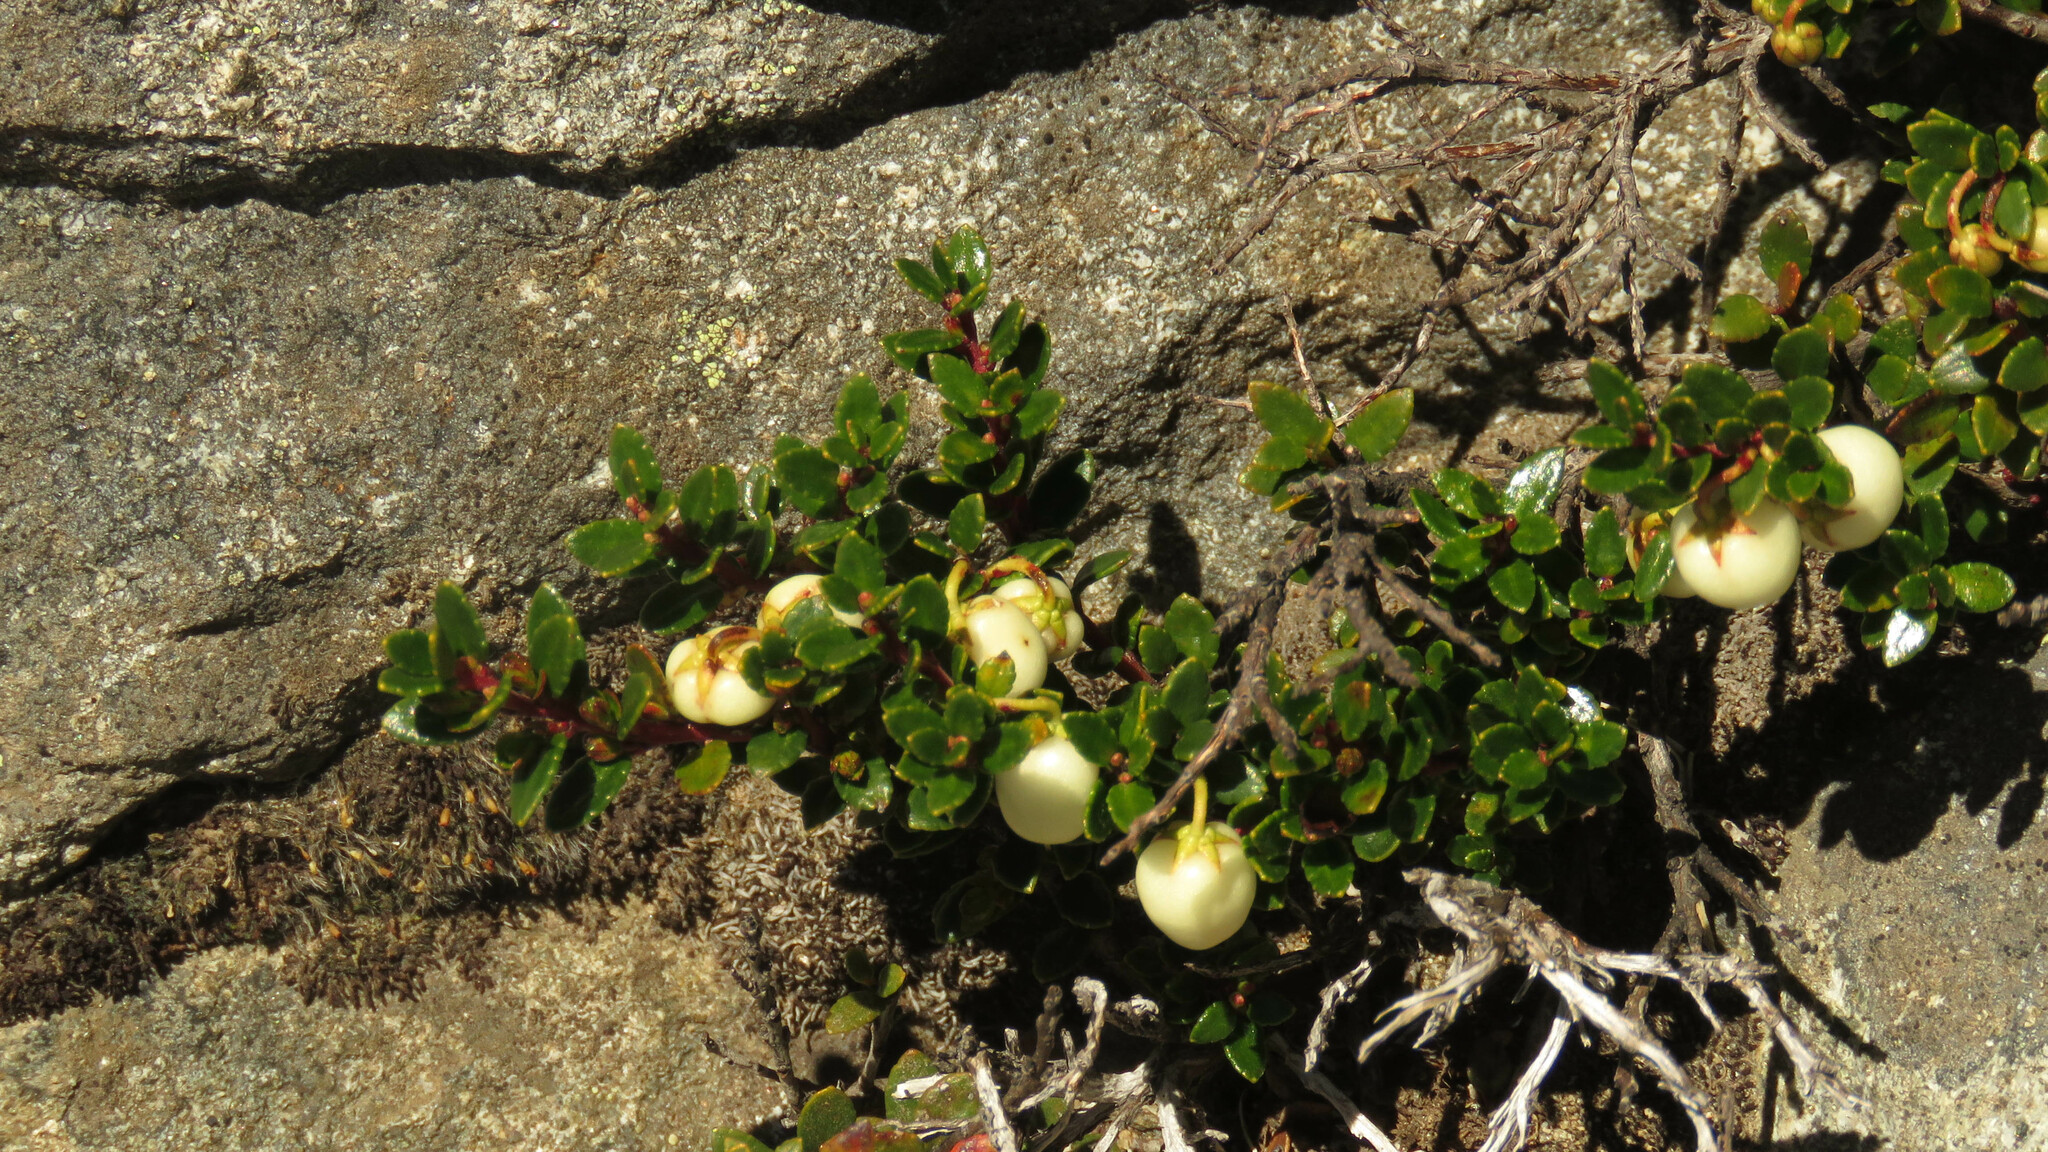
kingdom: Plantae
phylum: Tracheophyta
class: Magnoliopsida
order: Ericales
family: Ericaceae
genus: Gaultheria
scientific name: Gaultheria pumila
